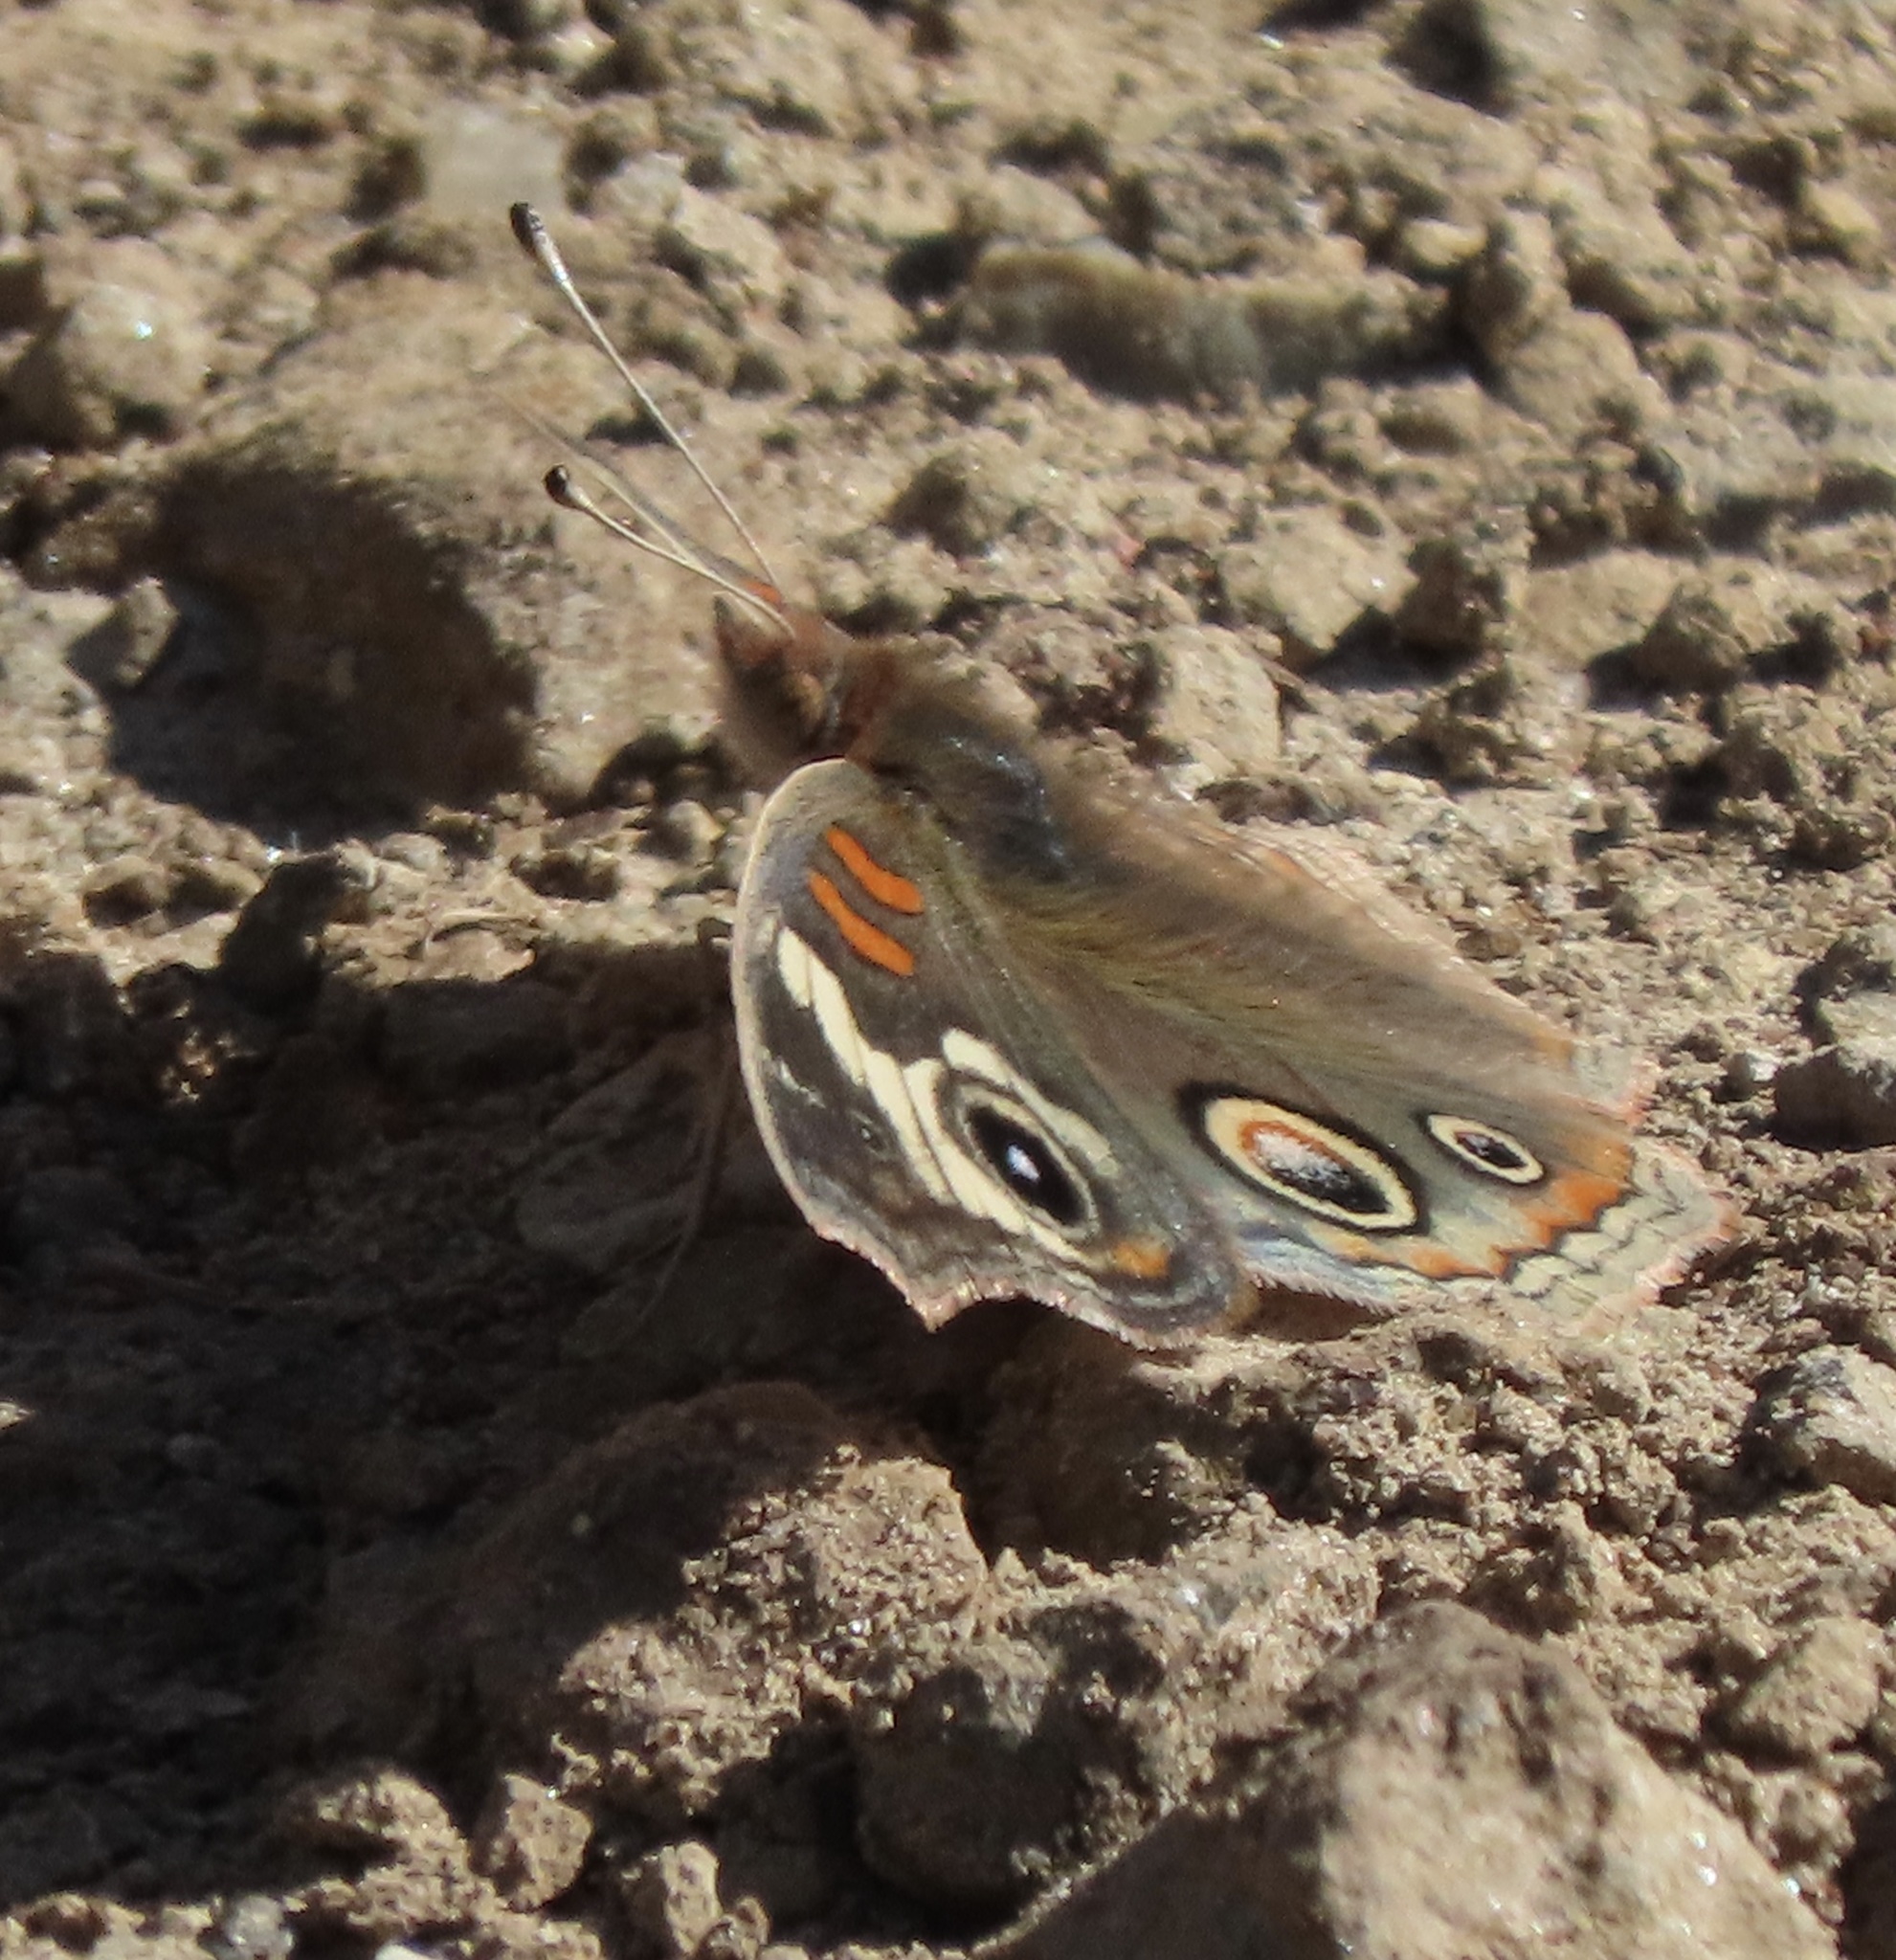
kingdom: Animalia
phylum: Arthropoda
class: Insecta
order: Lepidoptera
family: Nymphalidae
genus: Junonia
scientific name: Junonia grisea
